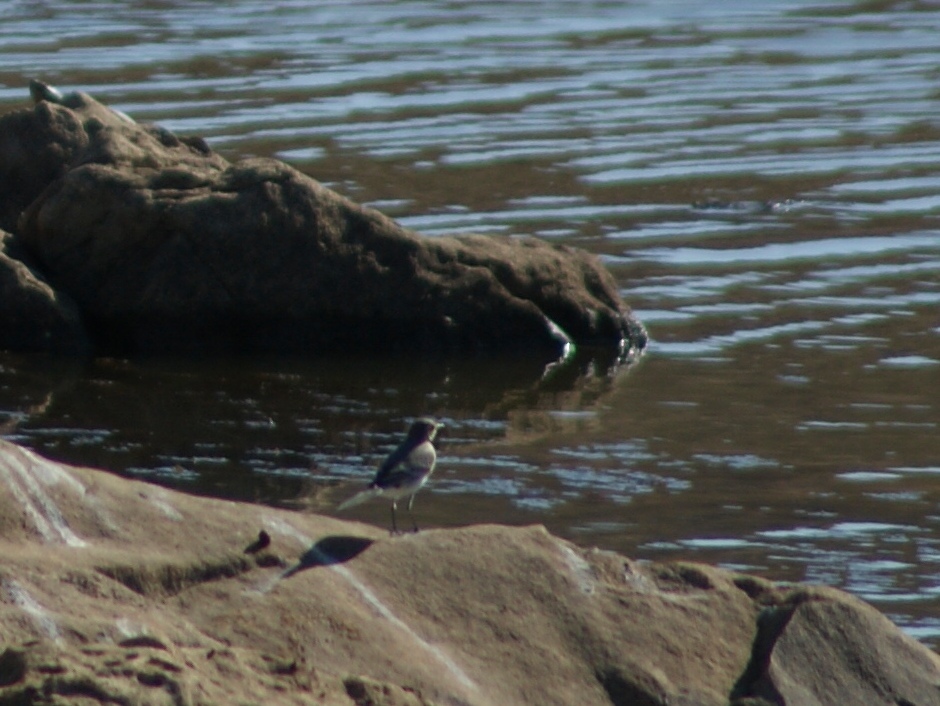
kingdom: Animalia
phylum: Chordata
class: Aves
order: Passeriformes
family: Motacillidae
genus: Motacilla
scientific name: Motacilla alba
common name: White wagtail
